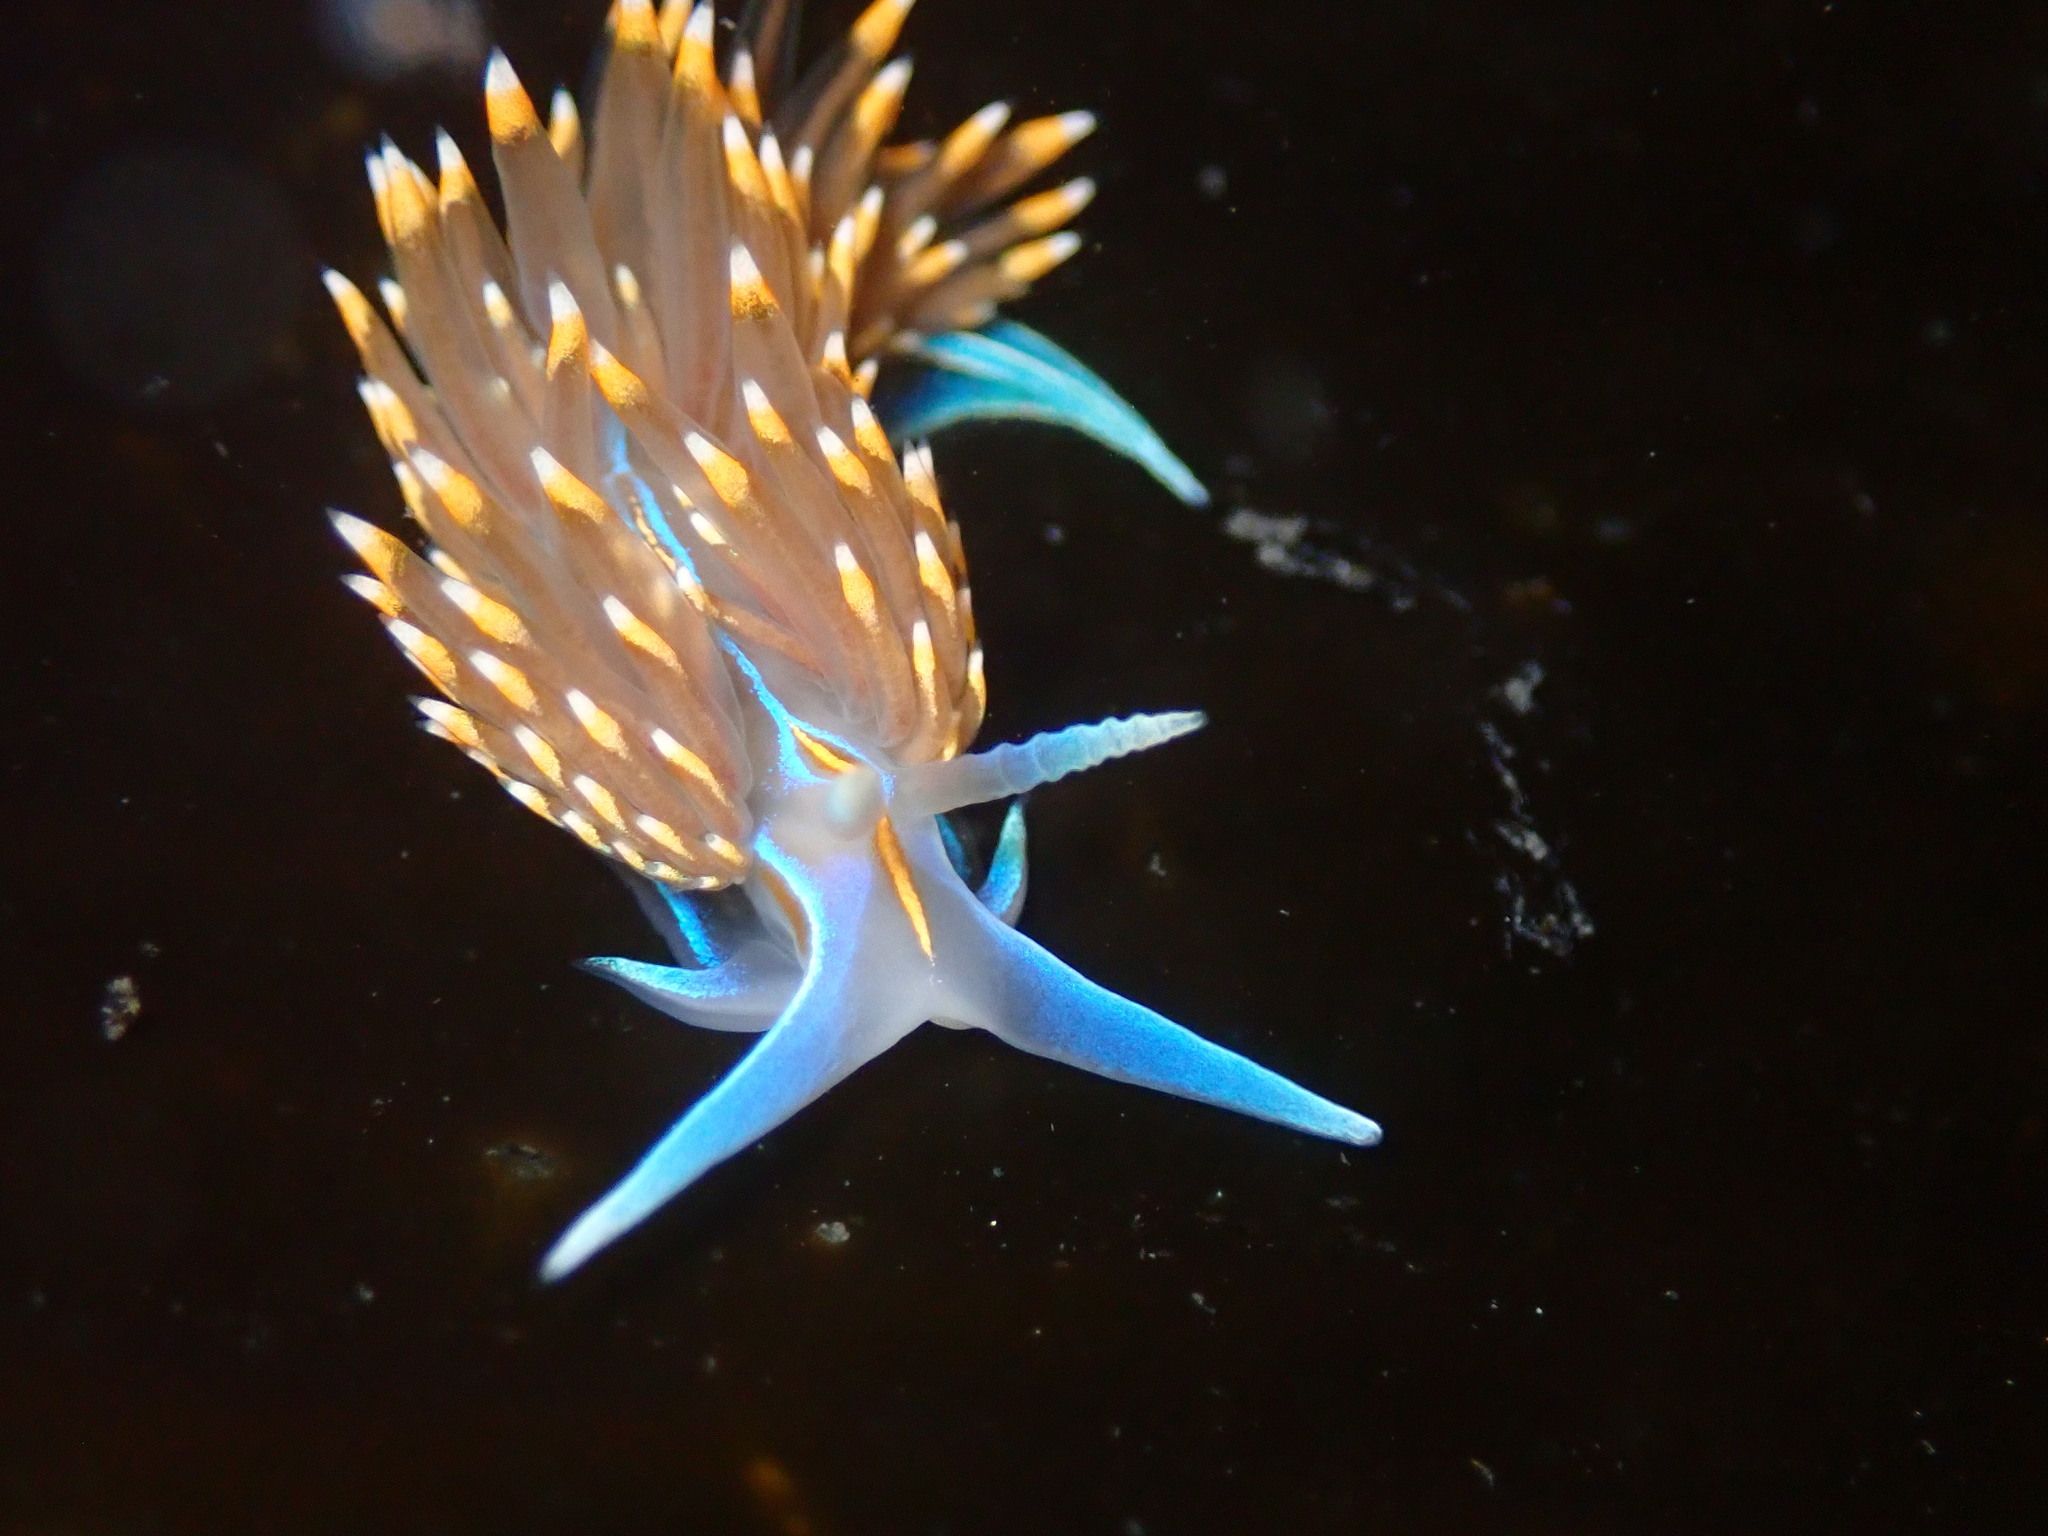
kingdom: Animalia
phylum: Mollusca
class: Gastropoda
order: Nudibranchia
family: Myrrhinidae
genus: Hermissenda
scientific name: Hermissenda opalescens
